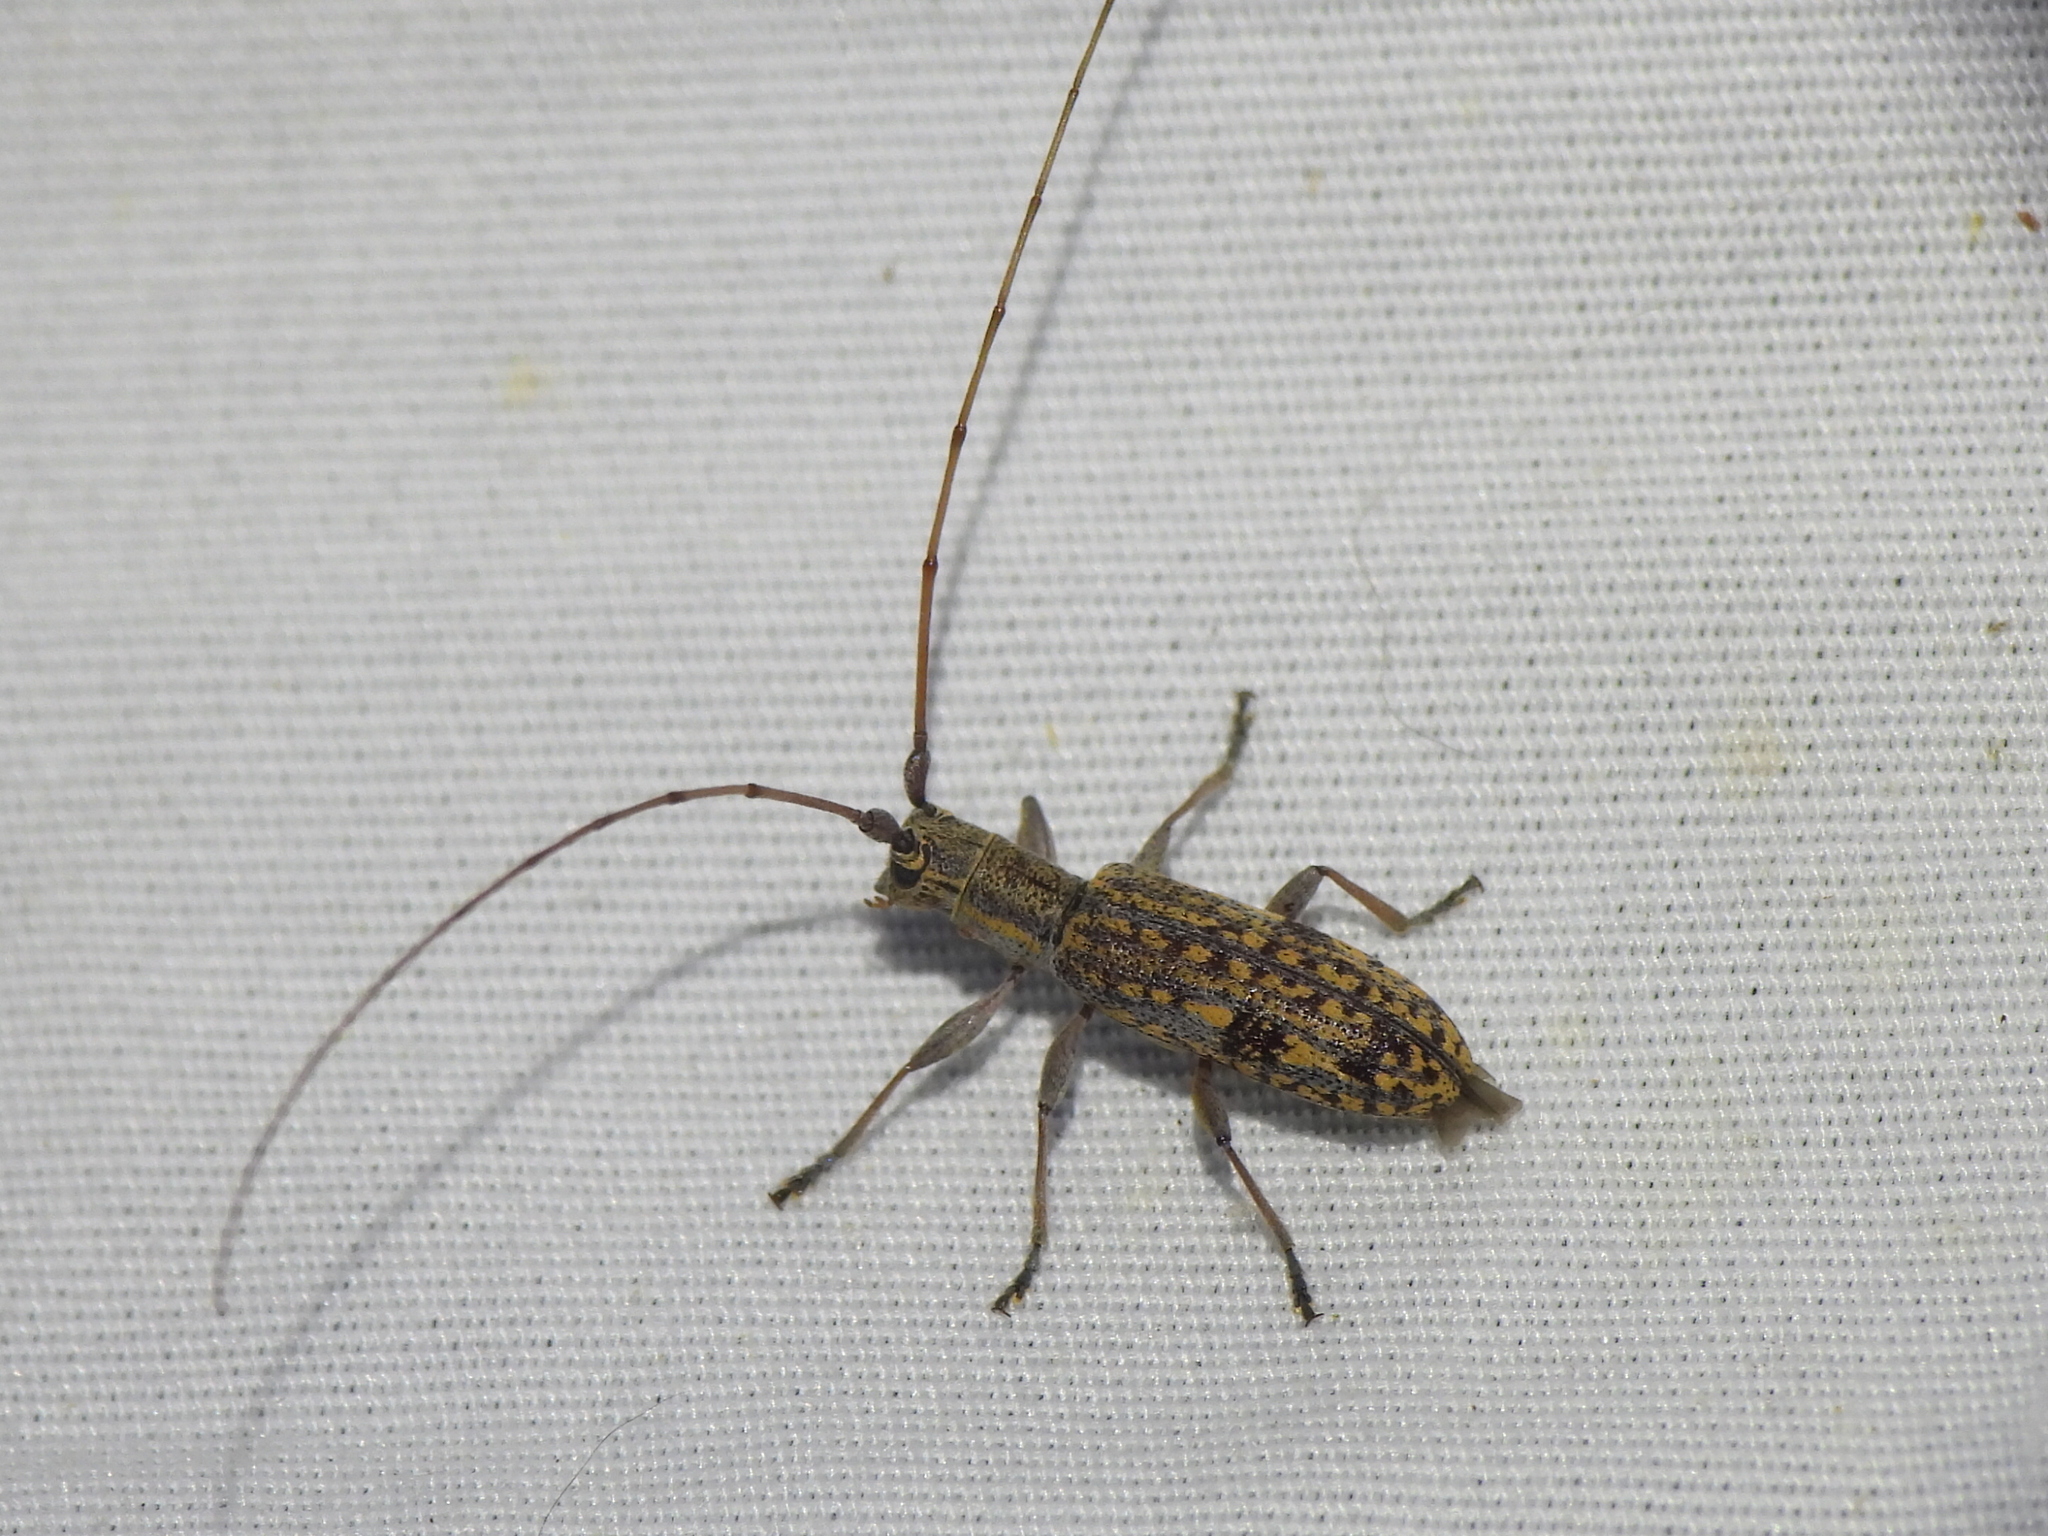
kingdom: Animalia
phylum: Arthropoda
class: Insecta
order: Coleoptera
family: Cerambycidae
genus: Dorcaschema
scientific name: Dorcaschema alternatum
